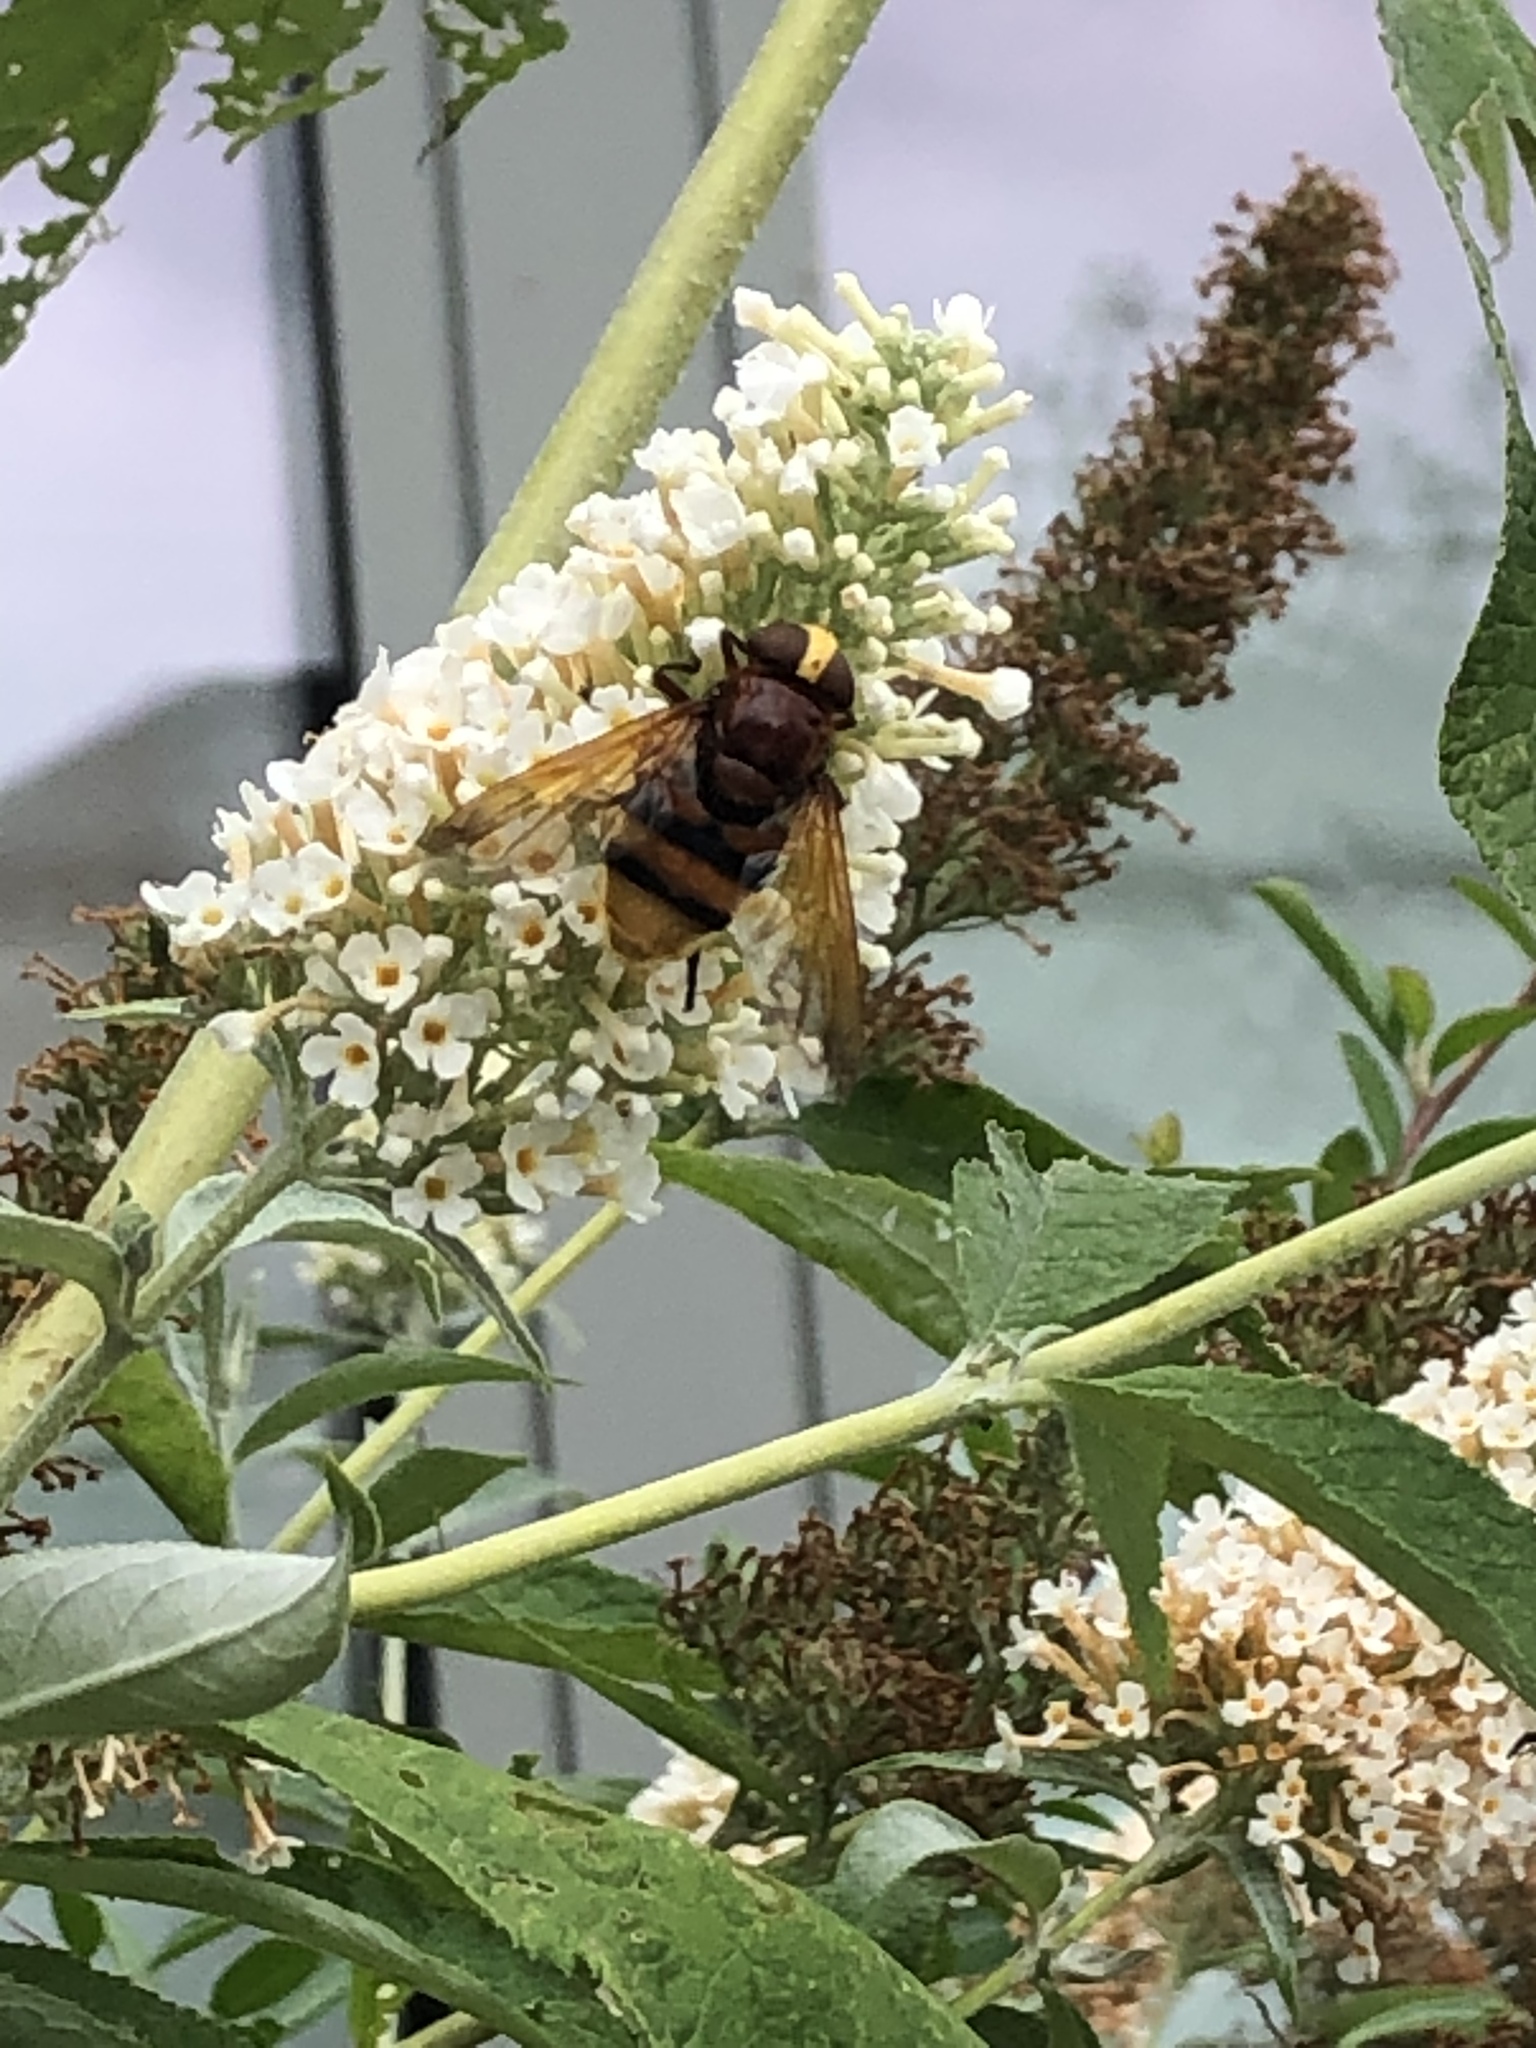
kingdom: Animalia
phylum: Arthropoda
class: Insecta
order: Diptera
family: Syrphidae
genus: Volucella
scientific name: Volucella zonaria
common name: Hornet hoverfly
